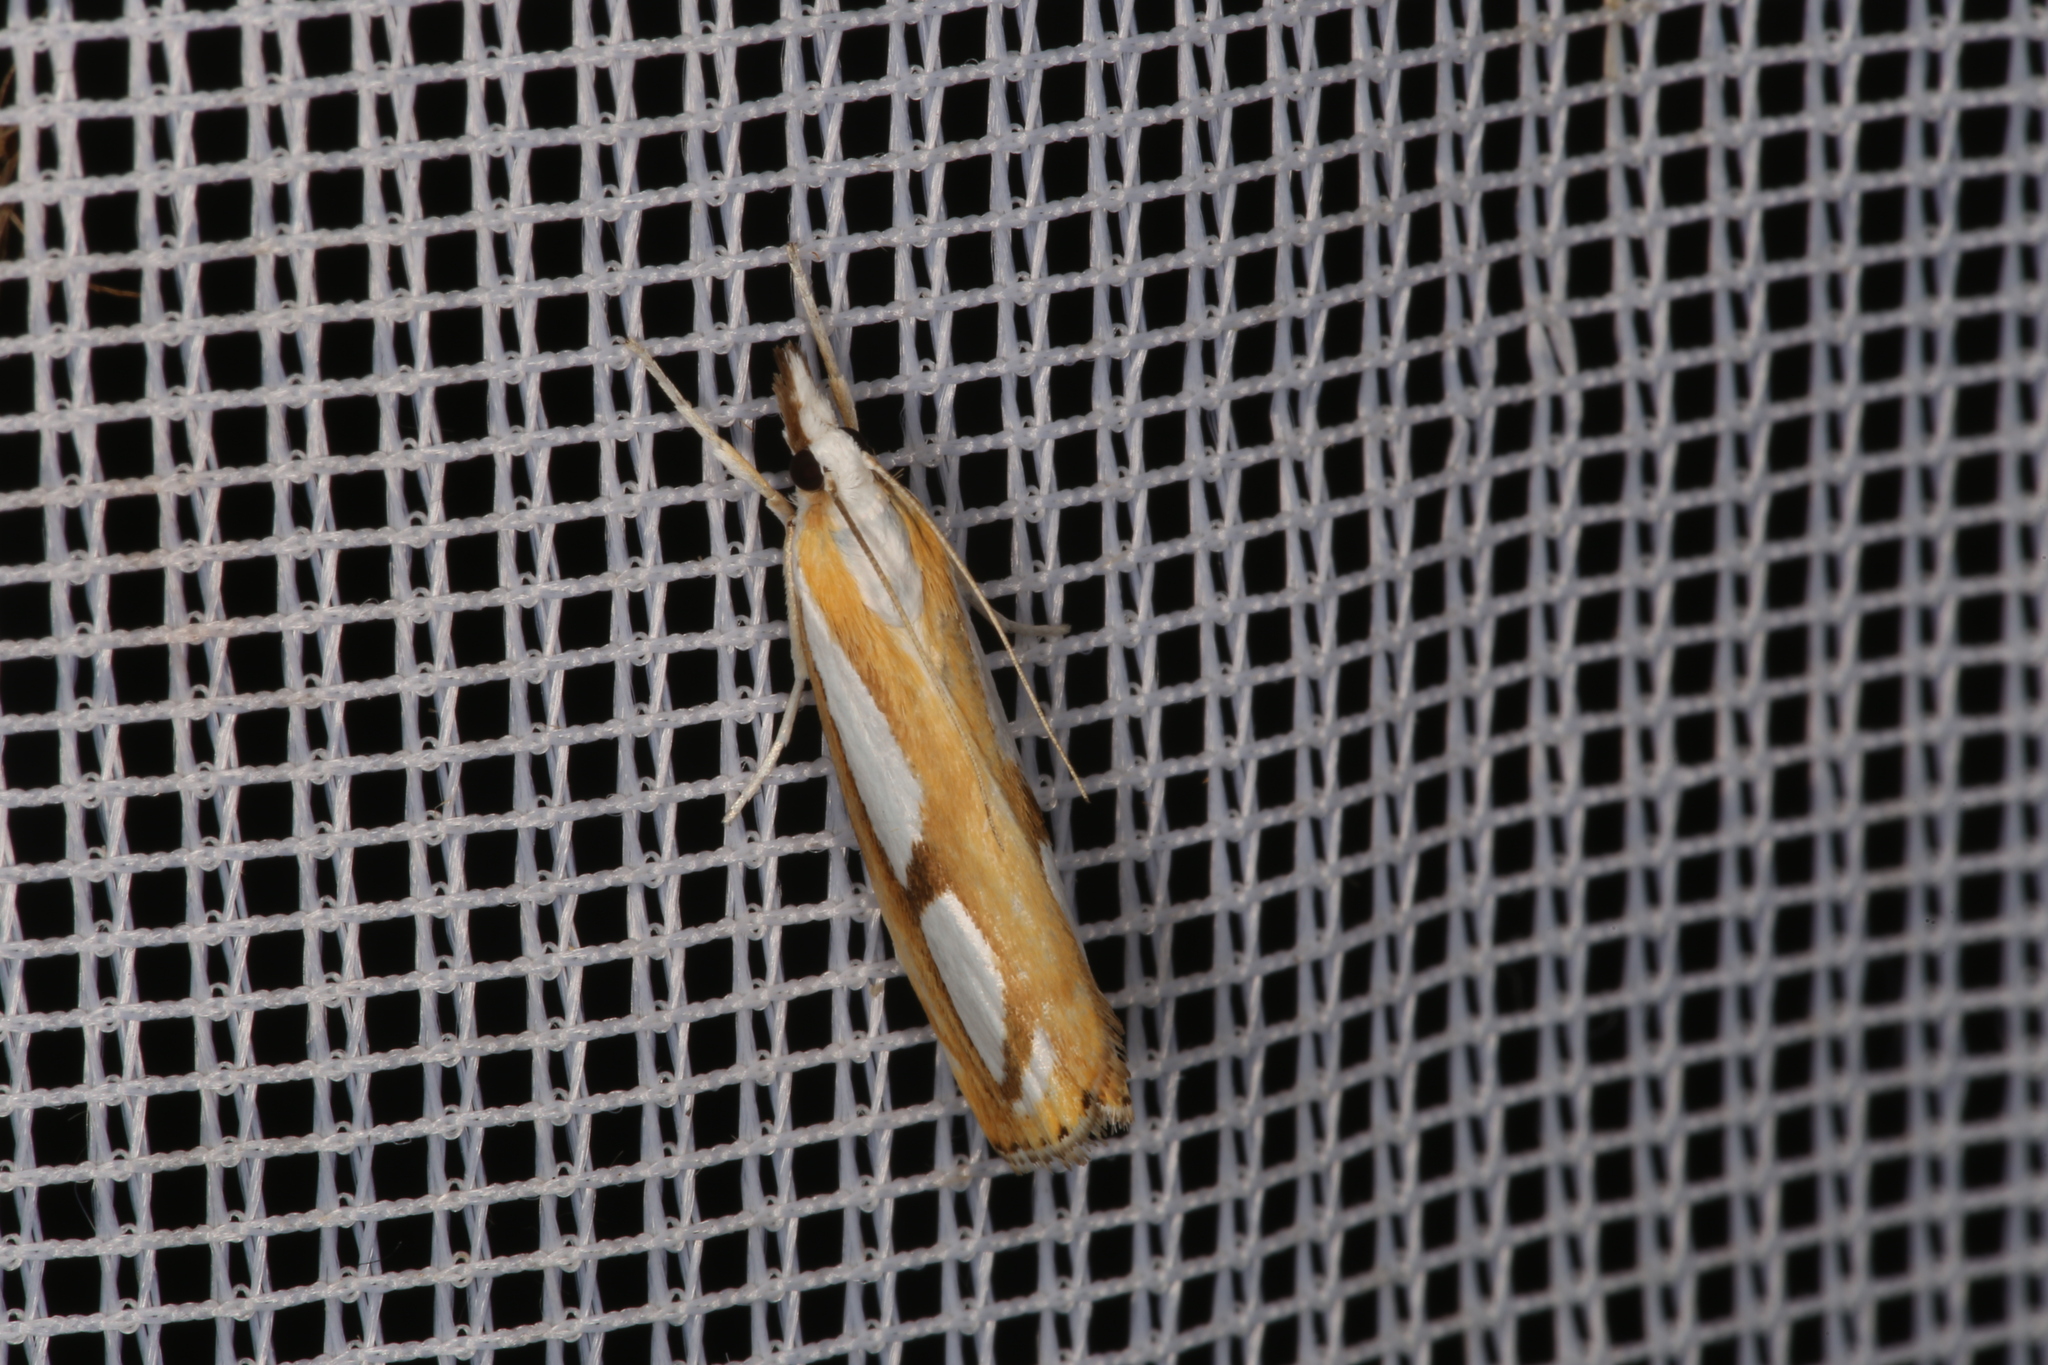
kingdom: Animalia
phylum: Arthropoda
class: Insecta
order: Lepidoptera
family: Crambidae
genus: Catoptria
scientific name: Catoptria
